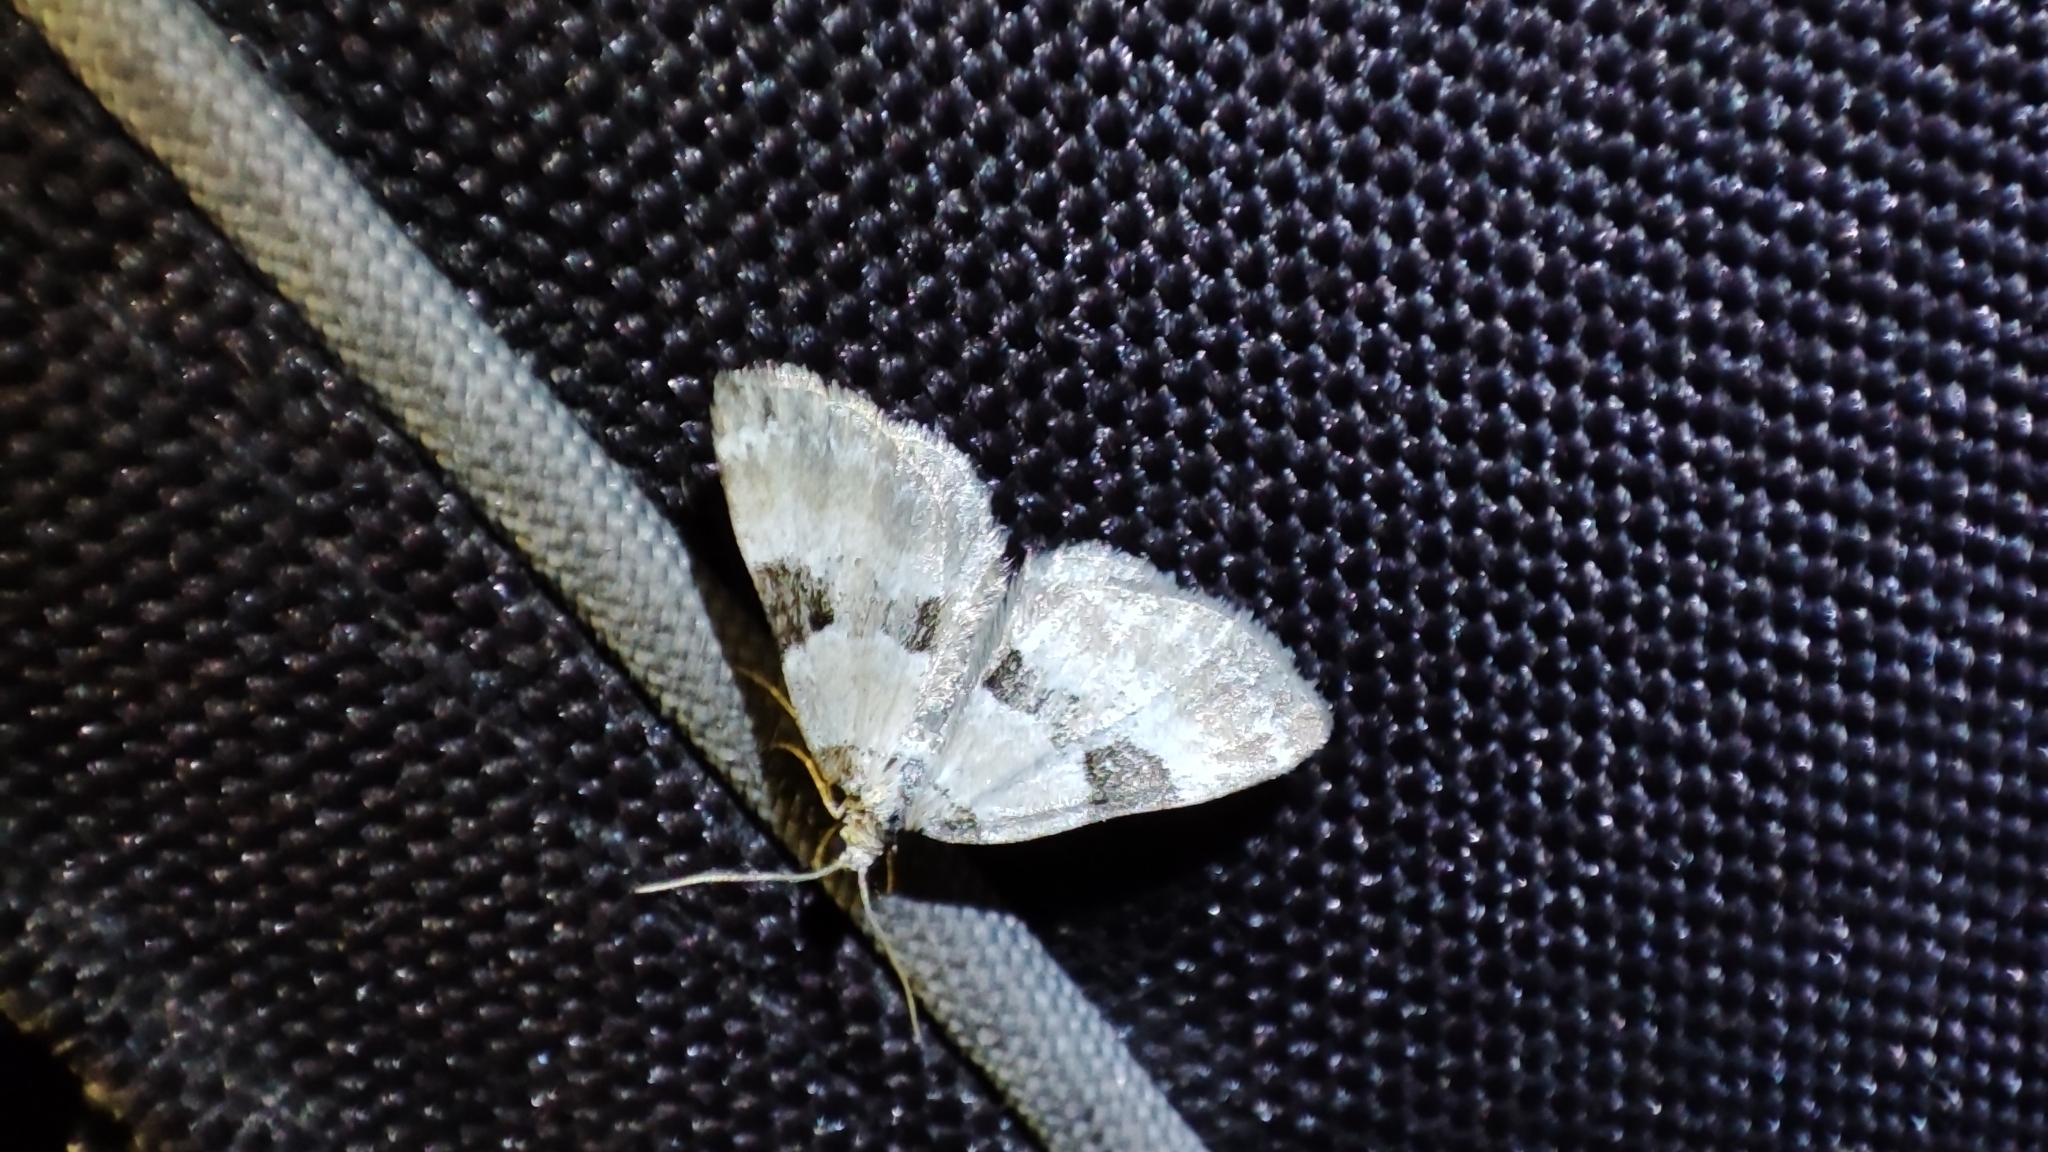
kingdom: Animalia
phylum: Arthropoda
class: Insecta
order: Lepidoptera
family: Geometridae
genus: Perizoma
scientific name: Perizoma blandiata
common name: Pretty pinion
